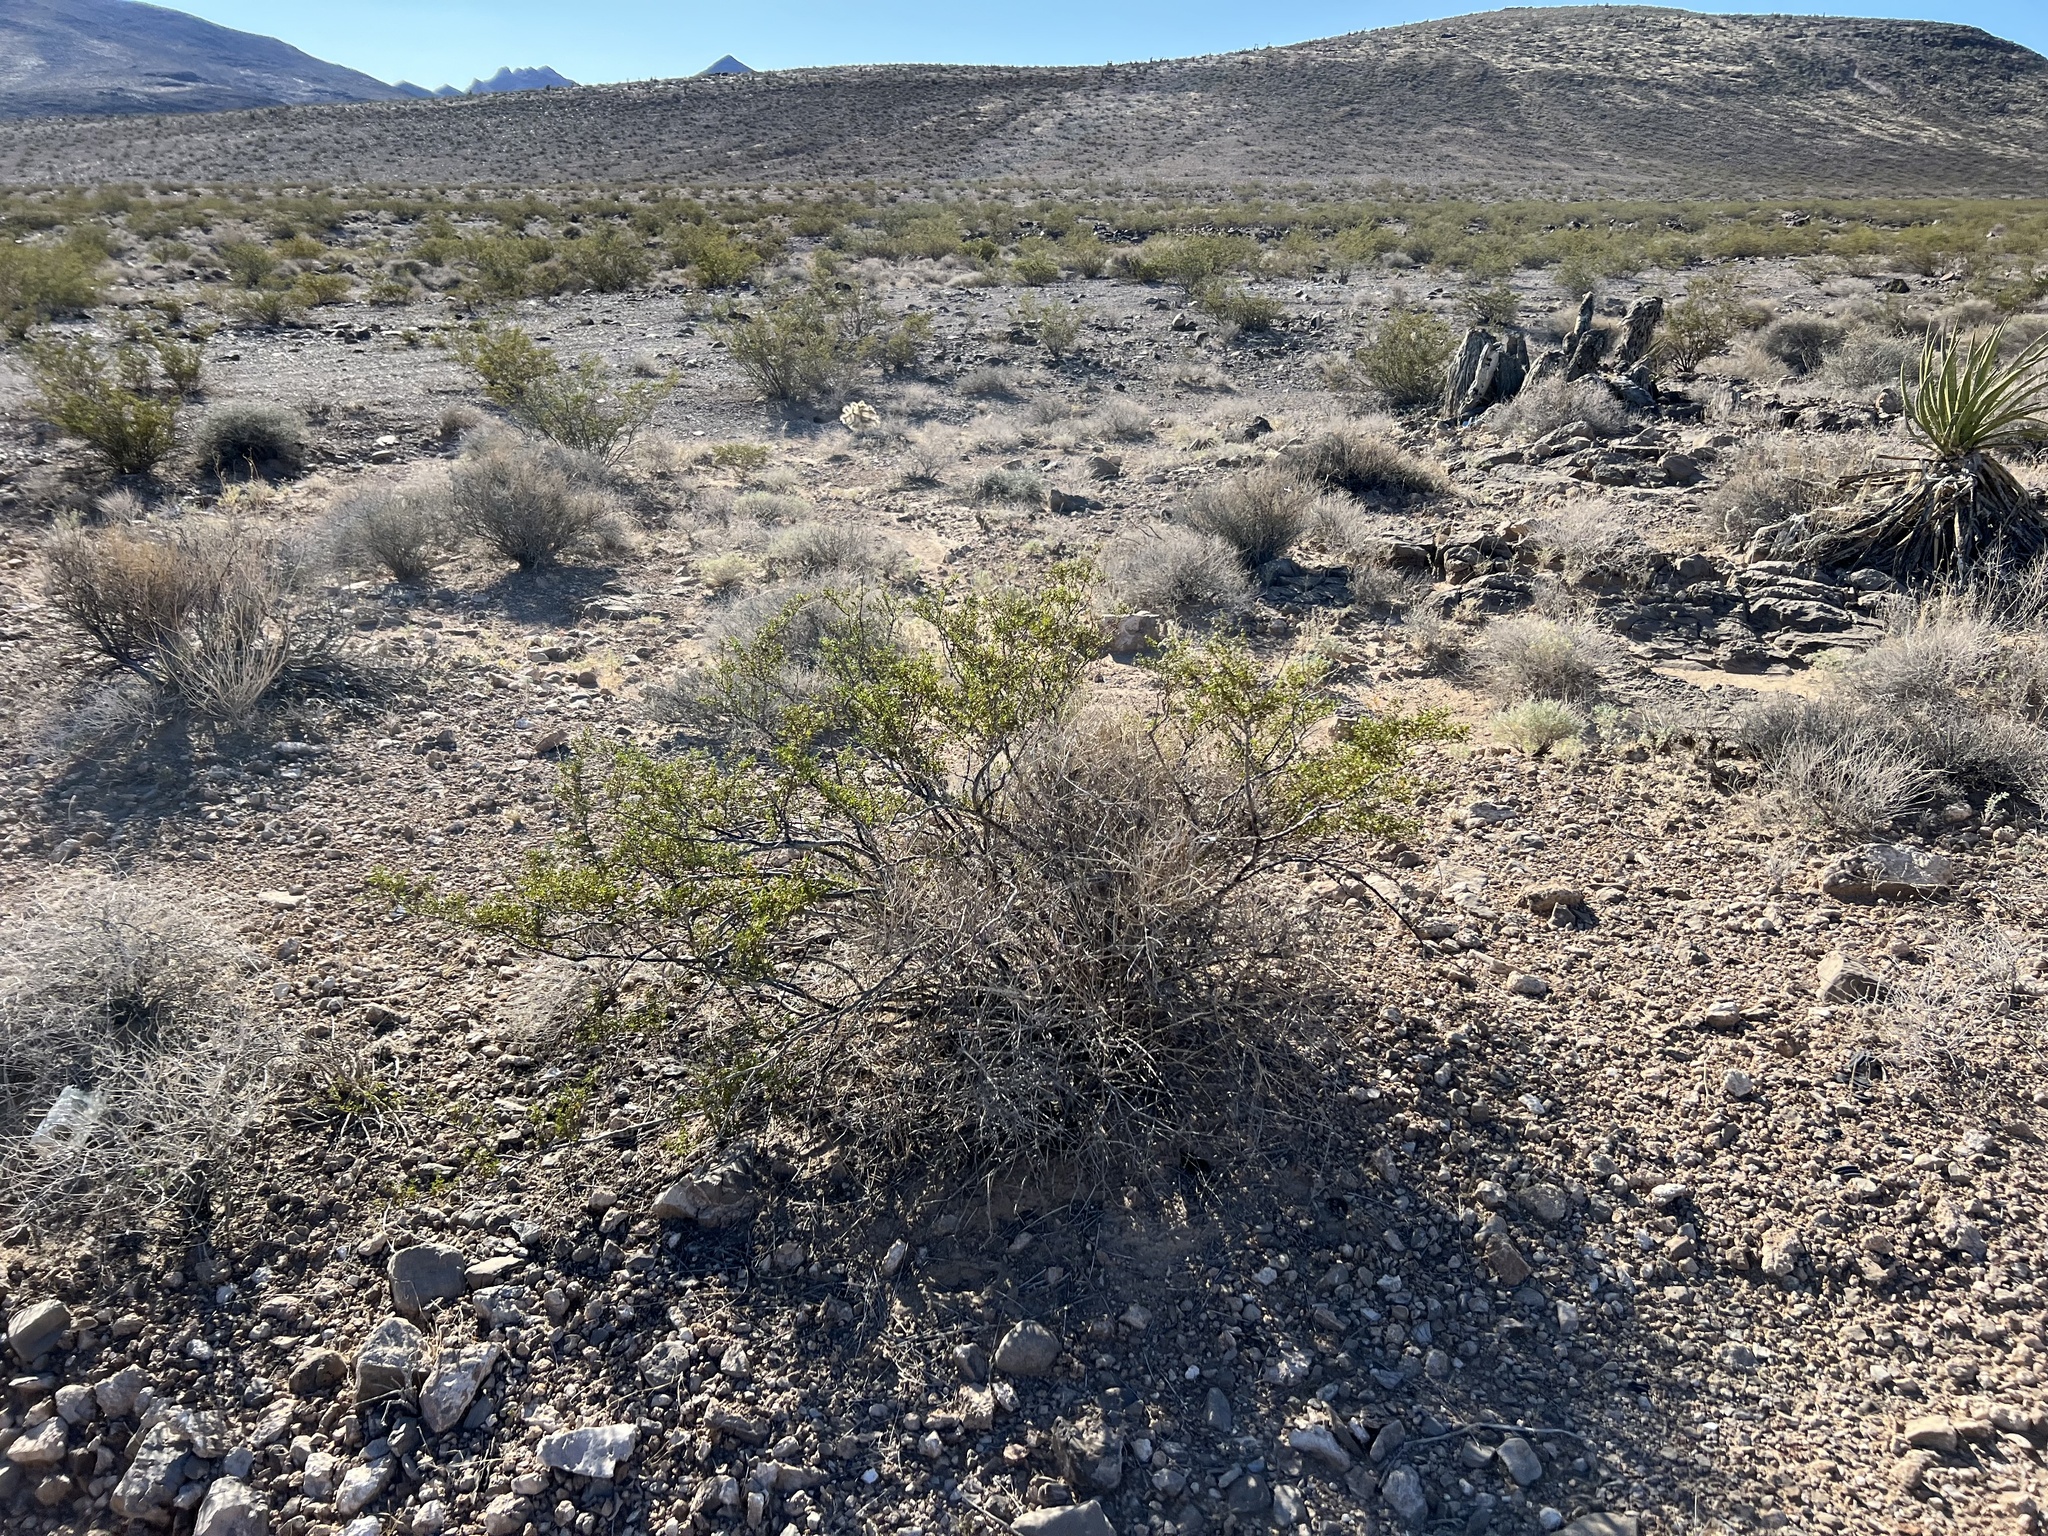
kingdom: Plantae
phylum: Tracheophyta
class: Magnoliopsida
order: Zygophyllales
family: Zygophyllaceae
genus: Larrea
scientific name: Larrea tridentata
